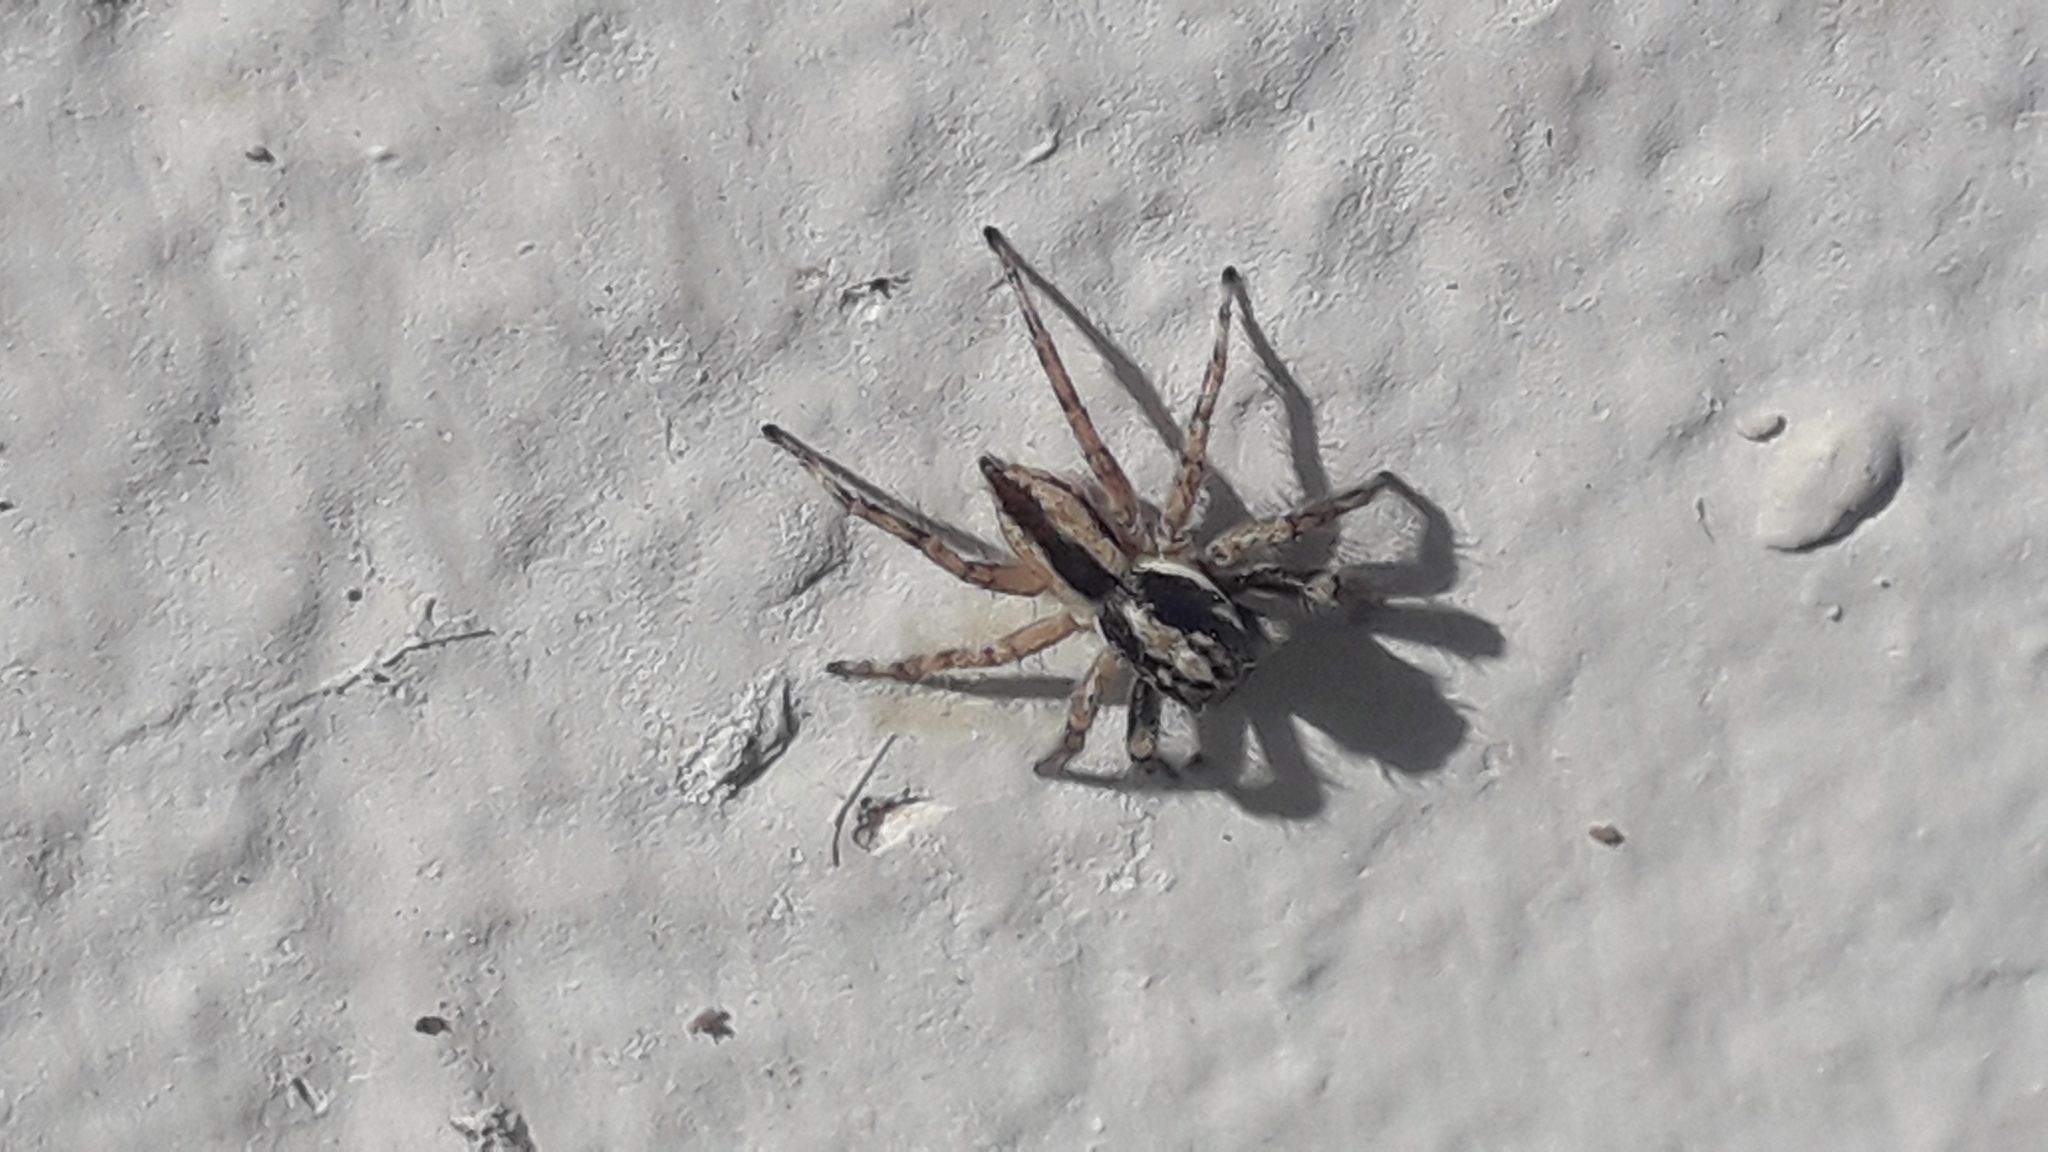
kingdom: Animalia
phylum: Arthropoda
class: Arachnida
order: Araneae
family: Salticidae
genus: Menemerus
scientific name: Menemerus bivittatus
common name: Gray wall jumper
